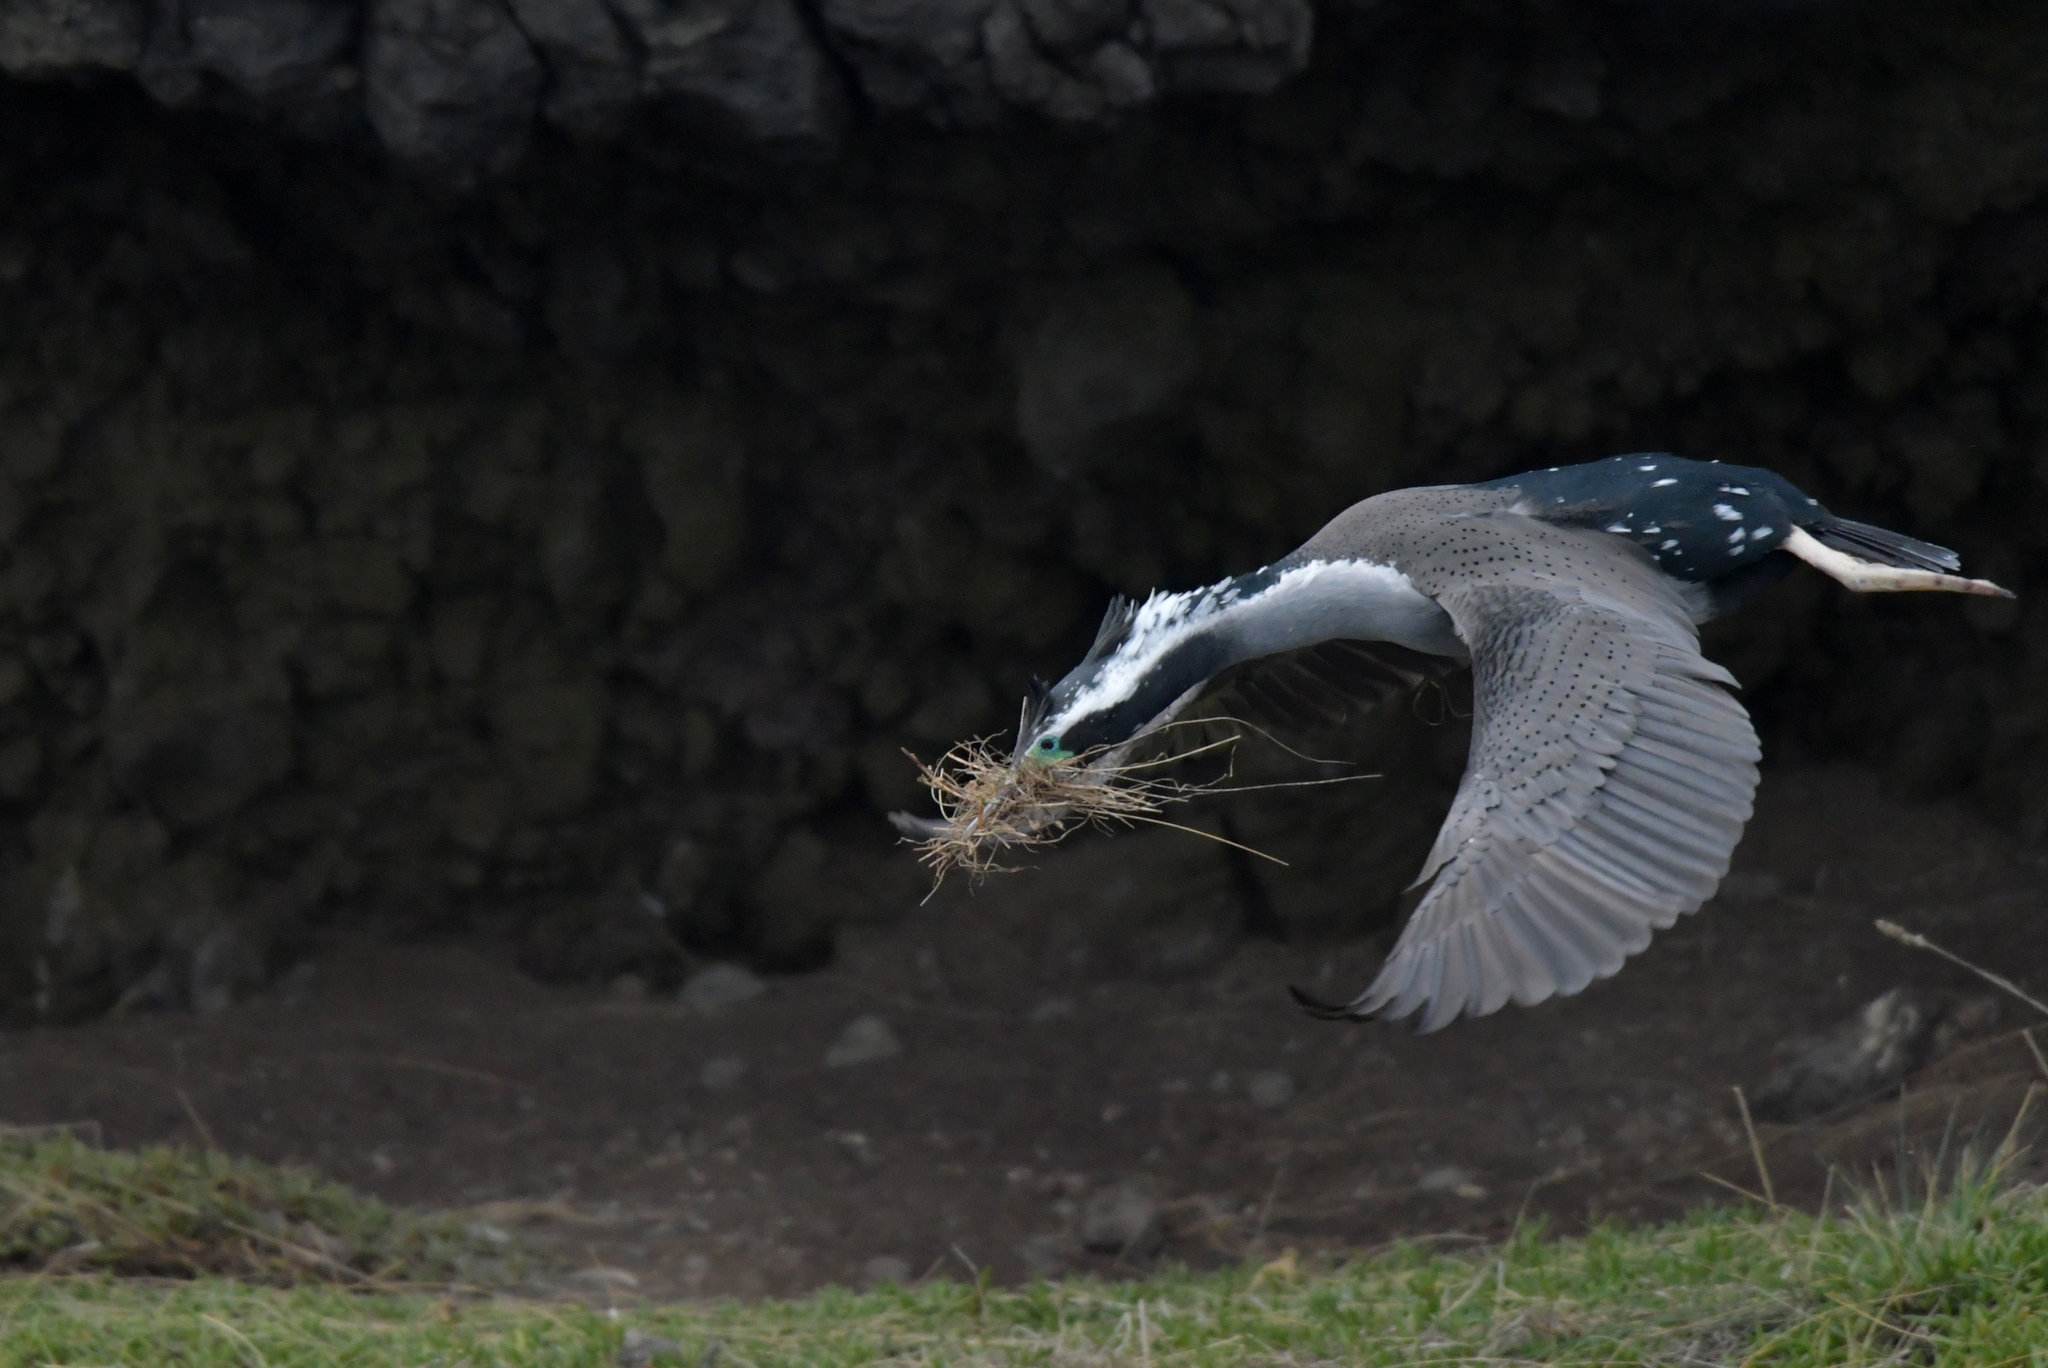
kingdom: Animalia
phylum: Chordata
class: Aves
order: Suliformes
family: Phalacrocoracidae
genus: Phalacrocorax
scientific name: Phalacrocorax punctatus
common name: Spotted shag
